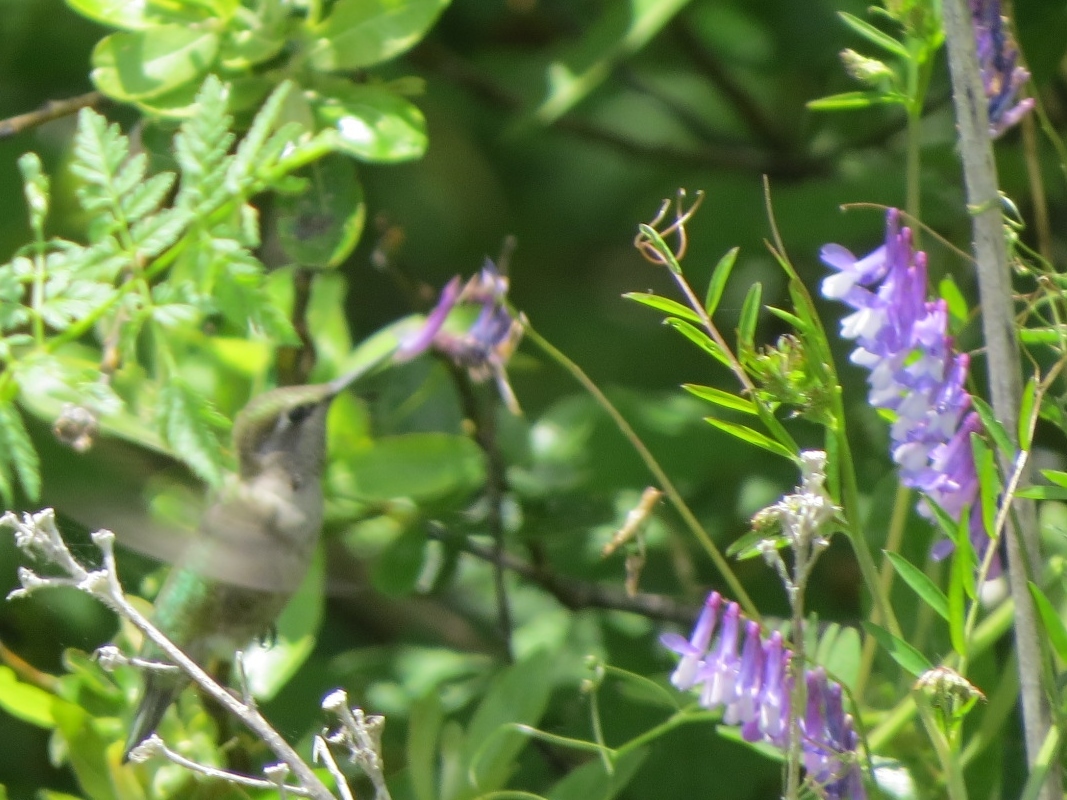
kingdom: Animalia
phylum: Chordata
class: Aves
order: Apodiformes
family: Trochilidae
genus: Calypte
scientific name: Calypte anna
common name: Anna's hummingbird
